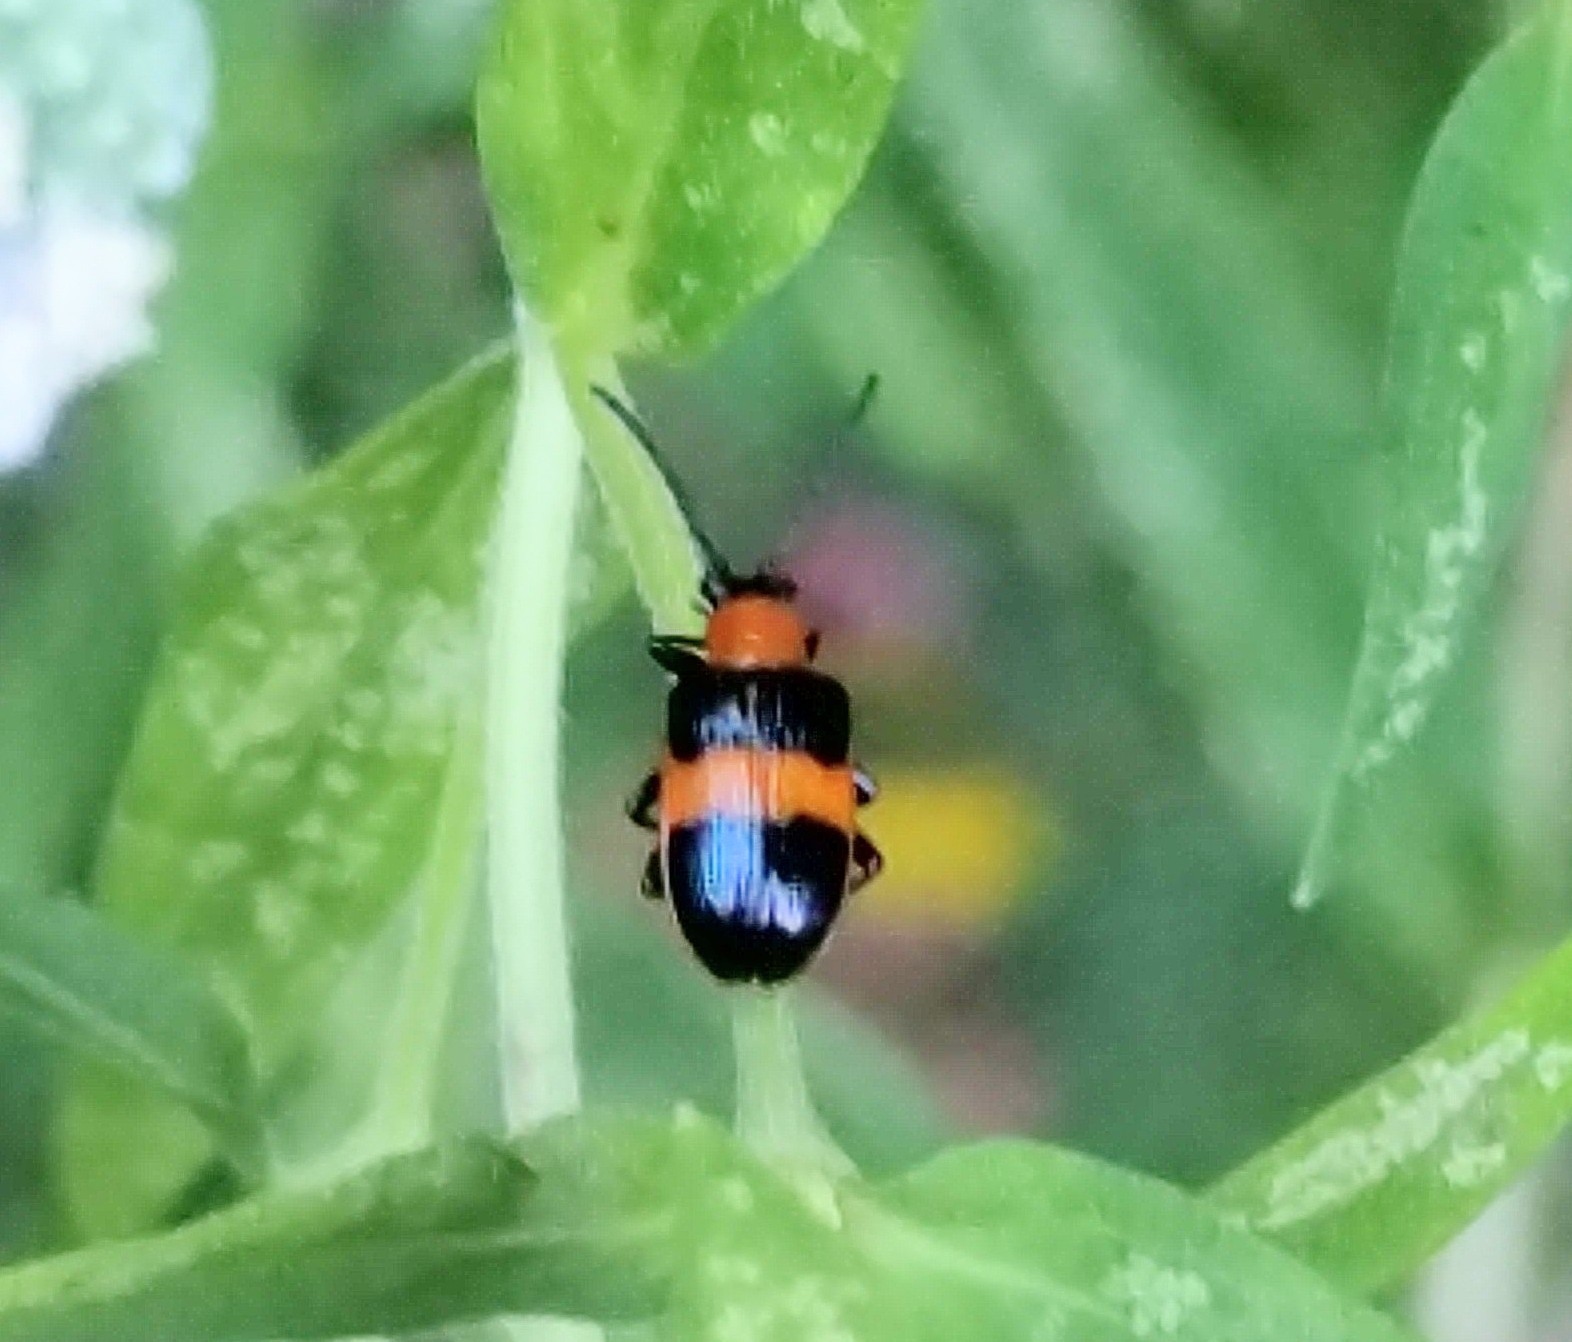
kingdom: Animalia
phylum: Arthropoda
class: Insecta
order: Coleoptera
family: Chrysomelidae
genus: Lema
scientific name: Lema solani
